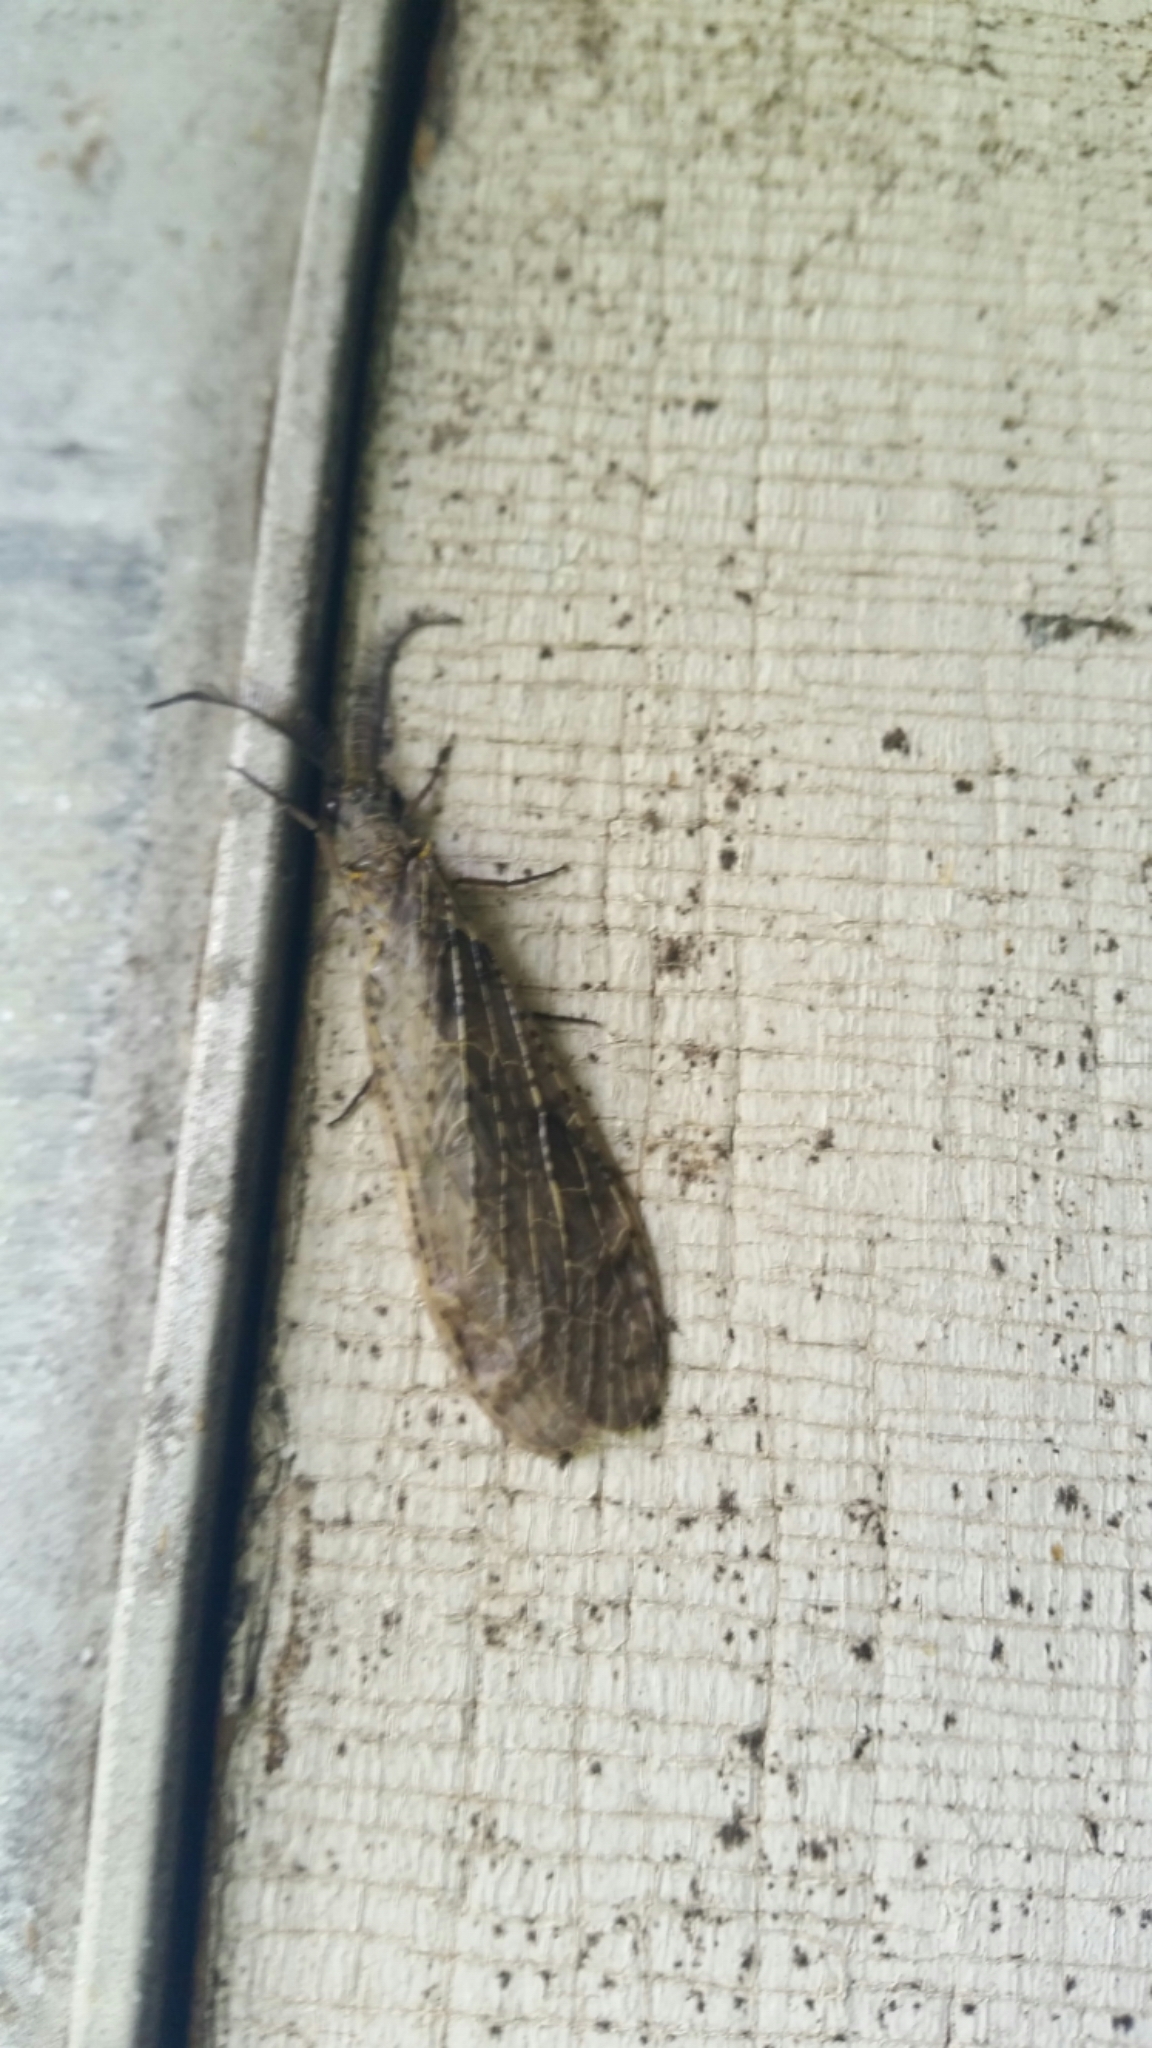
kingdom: Animalia
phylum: Arthropoda
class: Insecta
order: Megaloptera
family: Corydalidae
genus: Chauliodes
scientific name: Chauliodes rastricornis
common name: Spring fishfly
